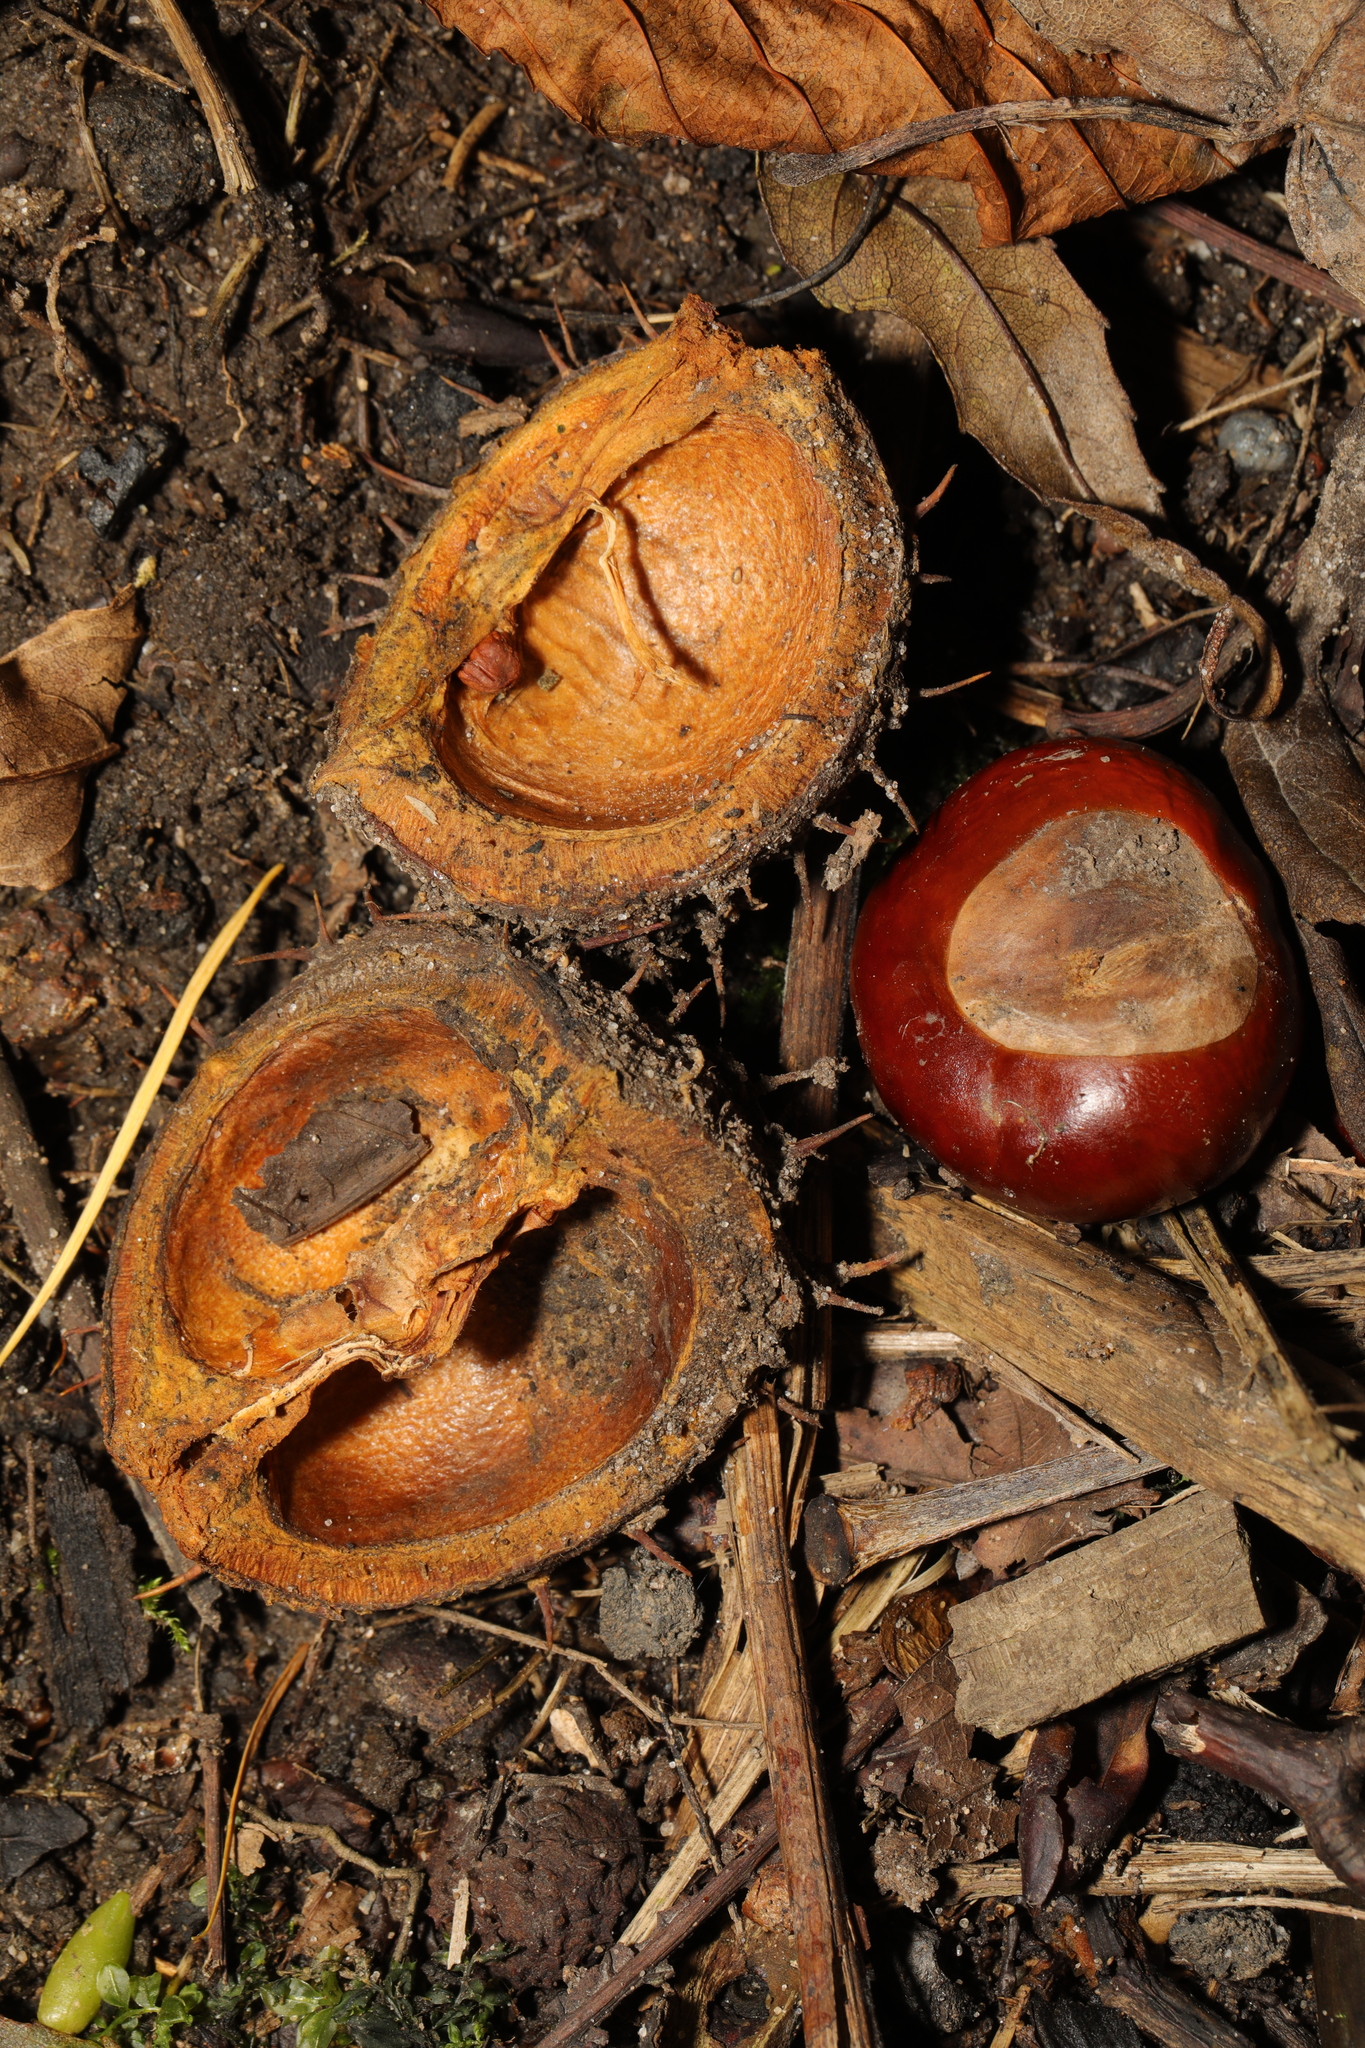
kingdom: Plantae
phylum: Tracheophyta
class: Magnoliopsida
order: Sapindales
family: Sapindaceae
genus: Aesculus
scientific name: Aesculus hippocastanum
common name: Horse-chestnut
